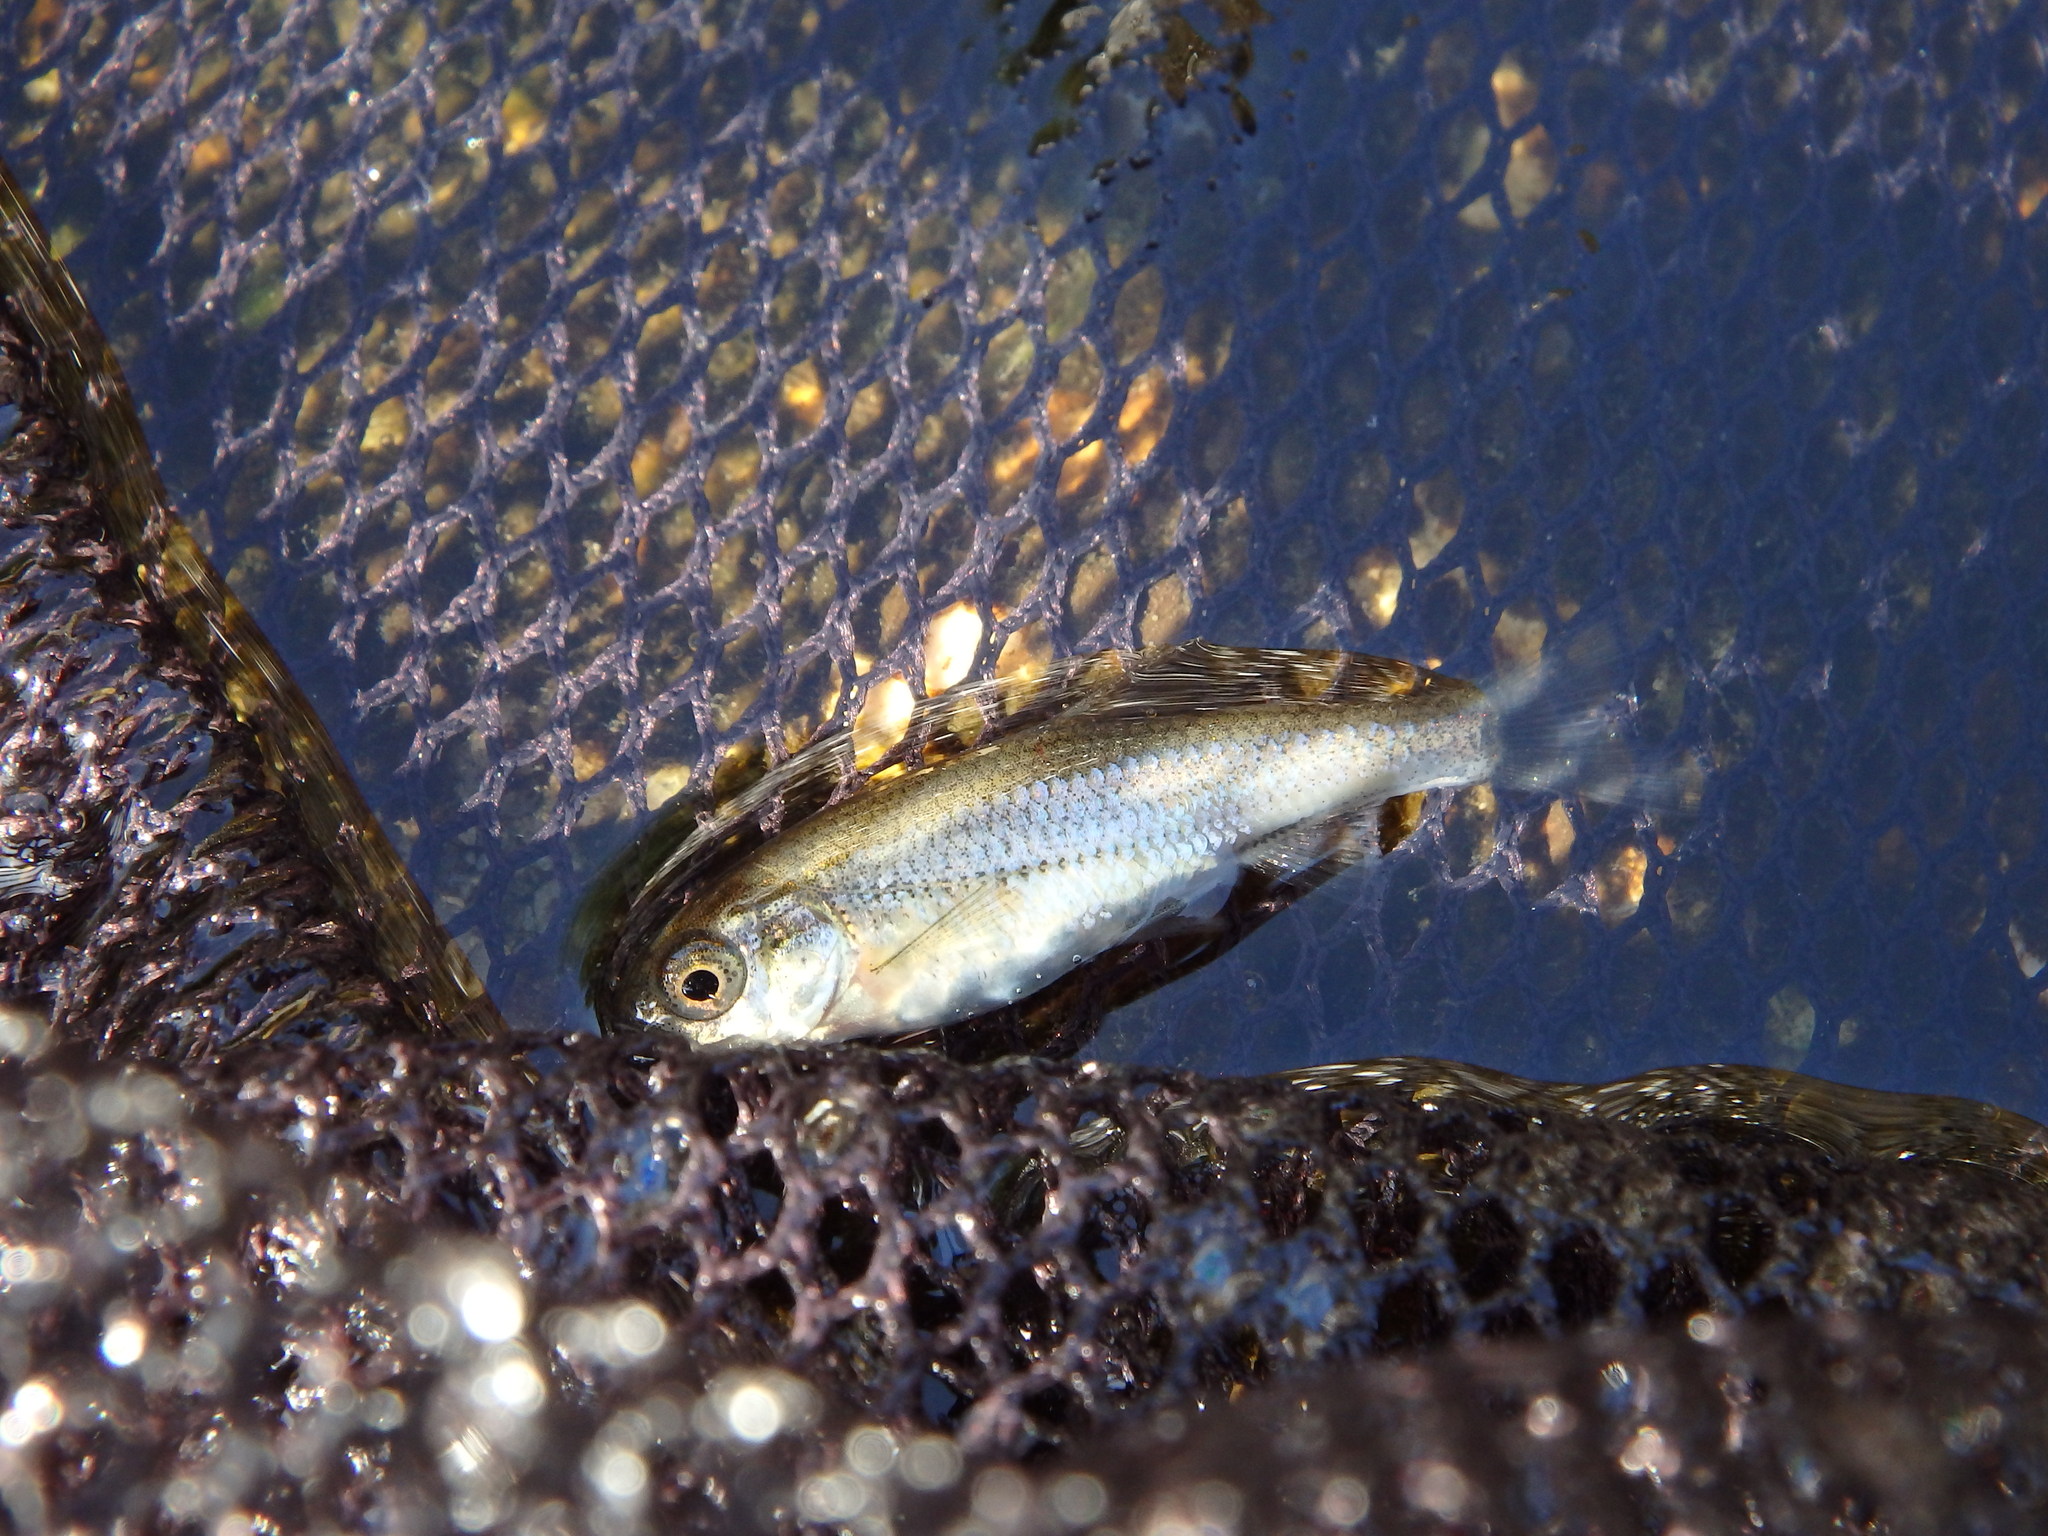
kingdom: Animalia
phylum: Chordata
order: Cypriniformes
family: Cyprinidae
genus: Achondrostoma
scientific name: Achondrostoma oligolepis
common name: Ruivaco
